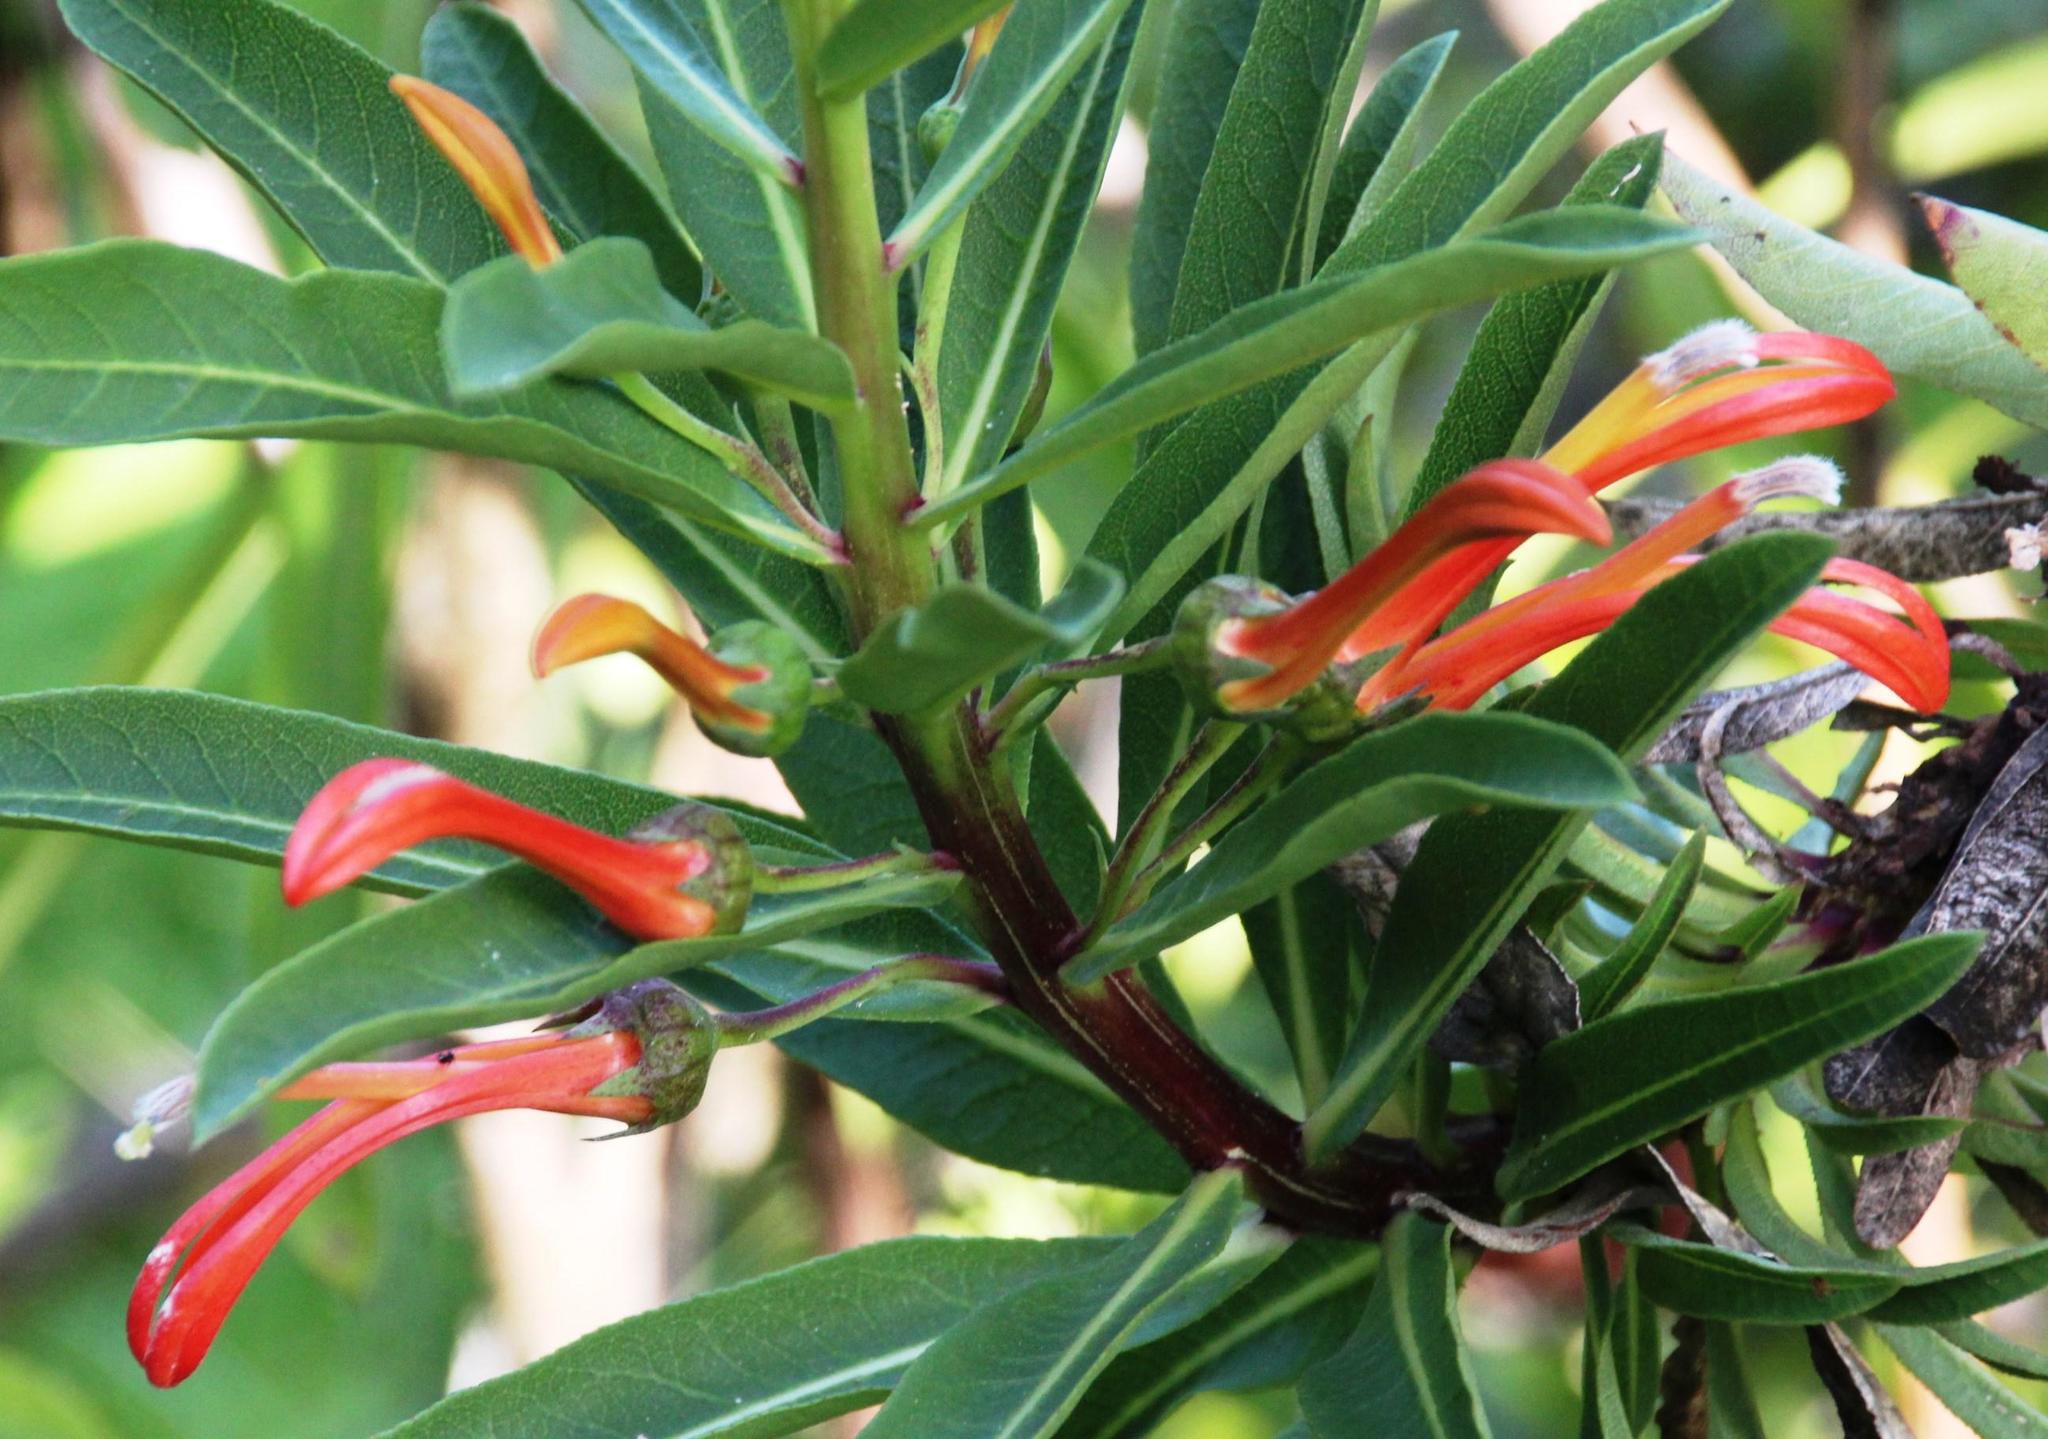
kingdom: Plantae
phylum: Tracheophyta
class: Magnoliopsida
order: Asterales
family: Campanulaceae
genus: Lobelia
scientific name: Lobelia excelsa
